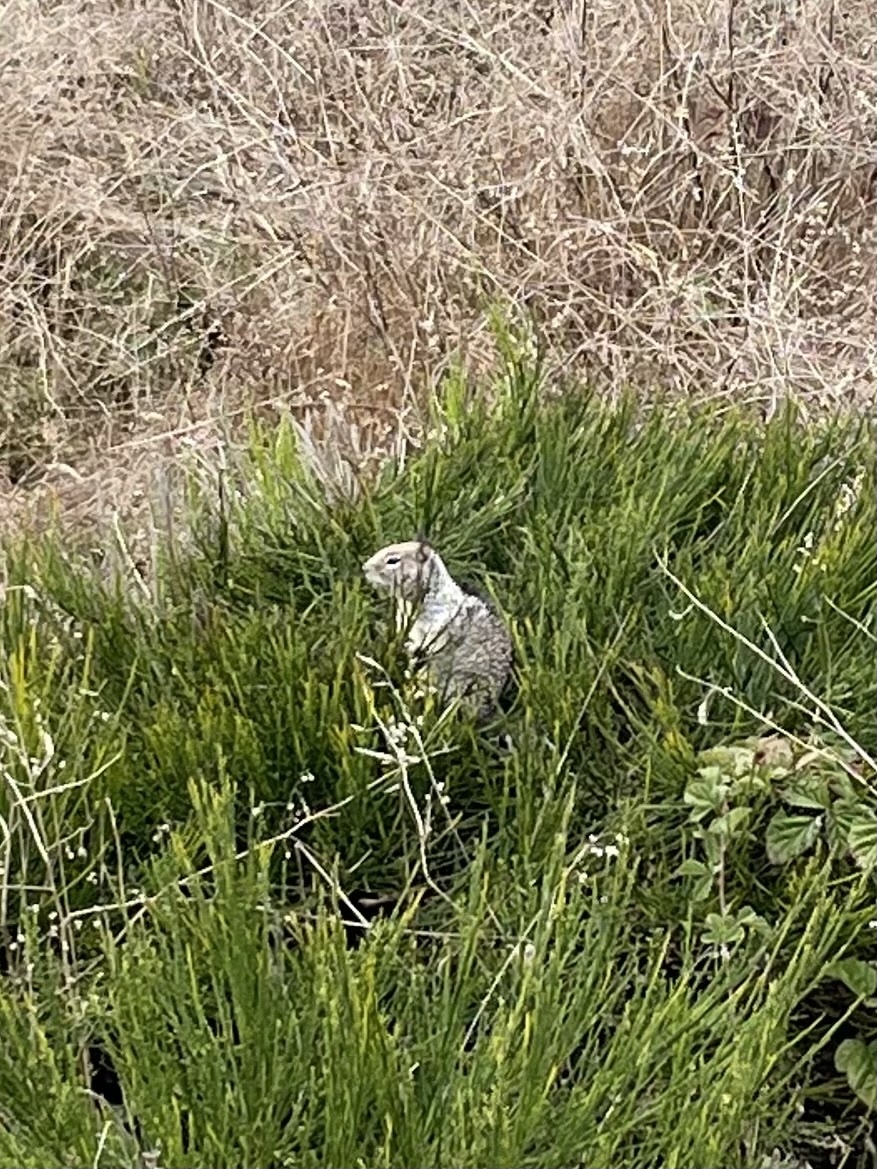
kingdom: Animalia
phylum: Chordata
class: Mammalia
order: Rodentia
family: Sciuridae
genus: Otospermophilus
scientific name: Otospermophilus beecheyi
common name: California ground squirrel
